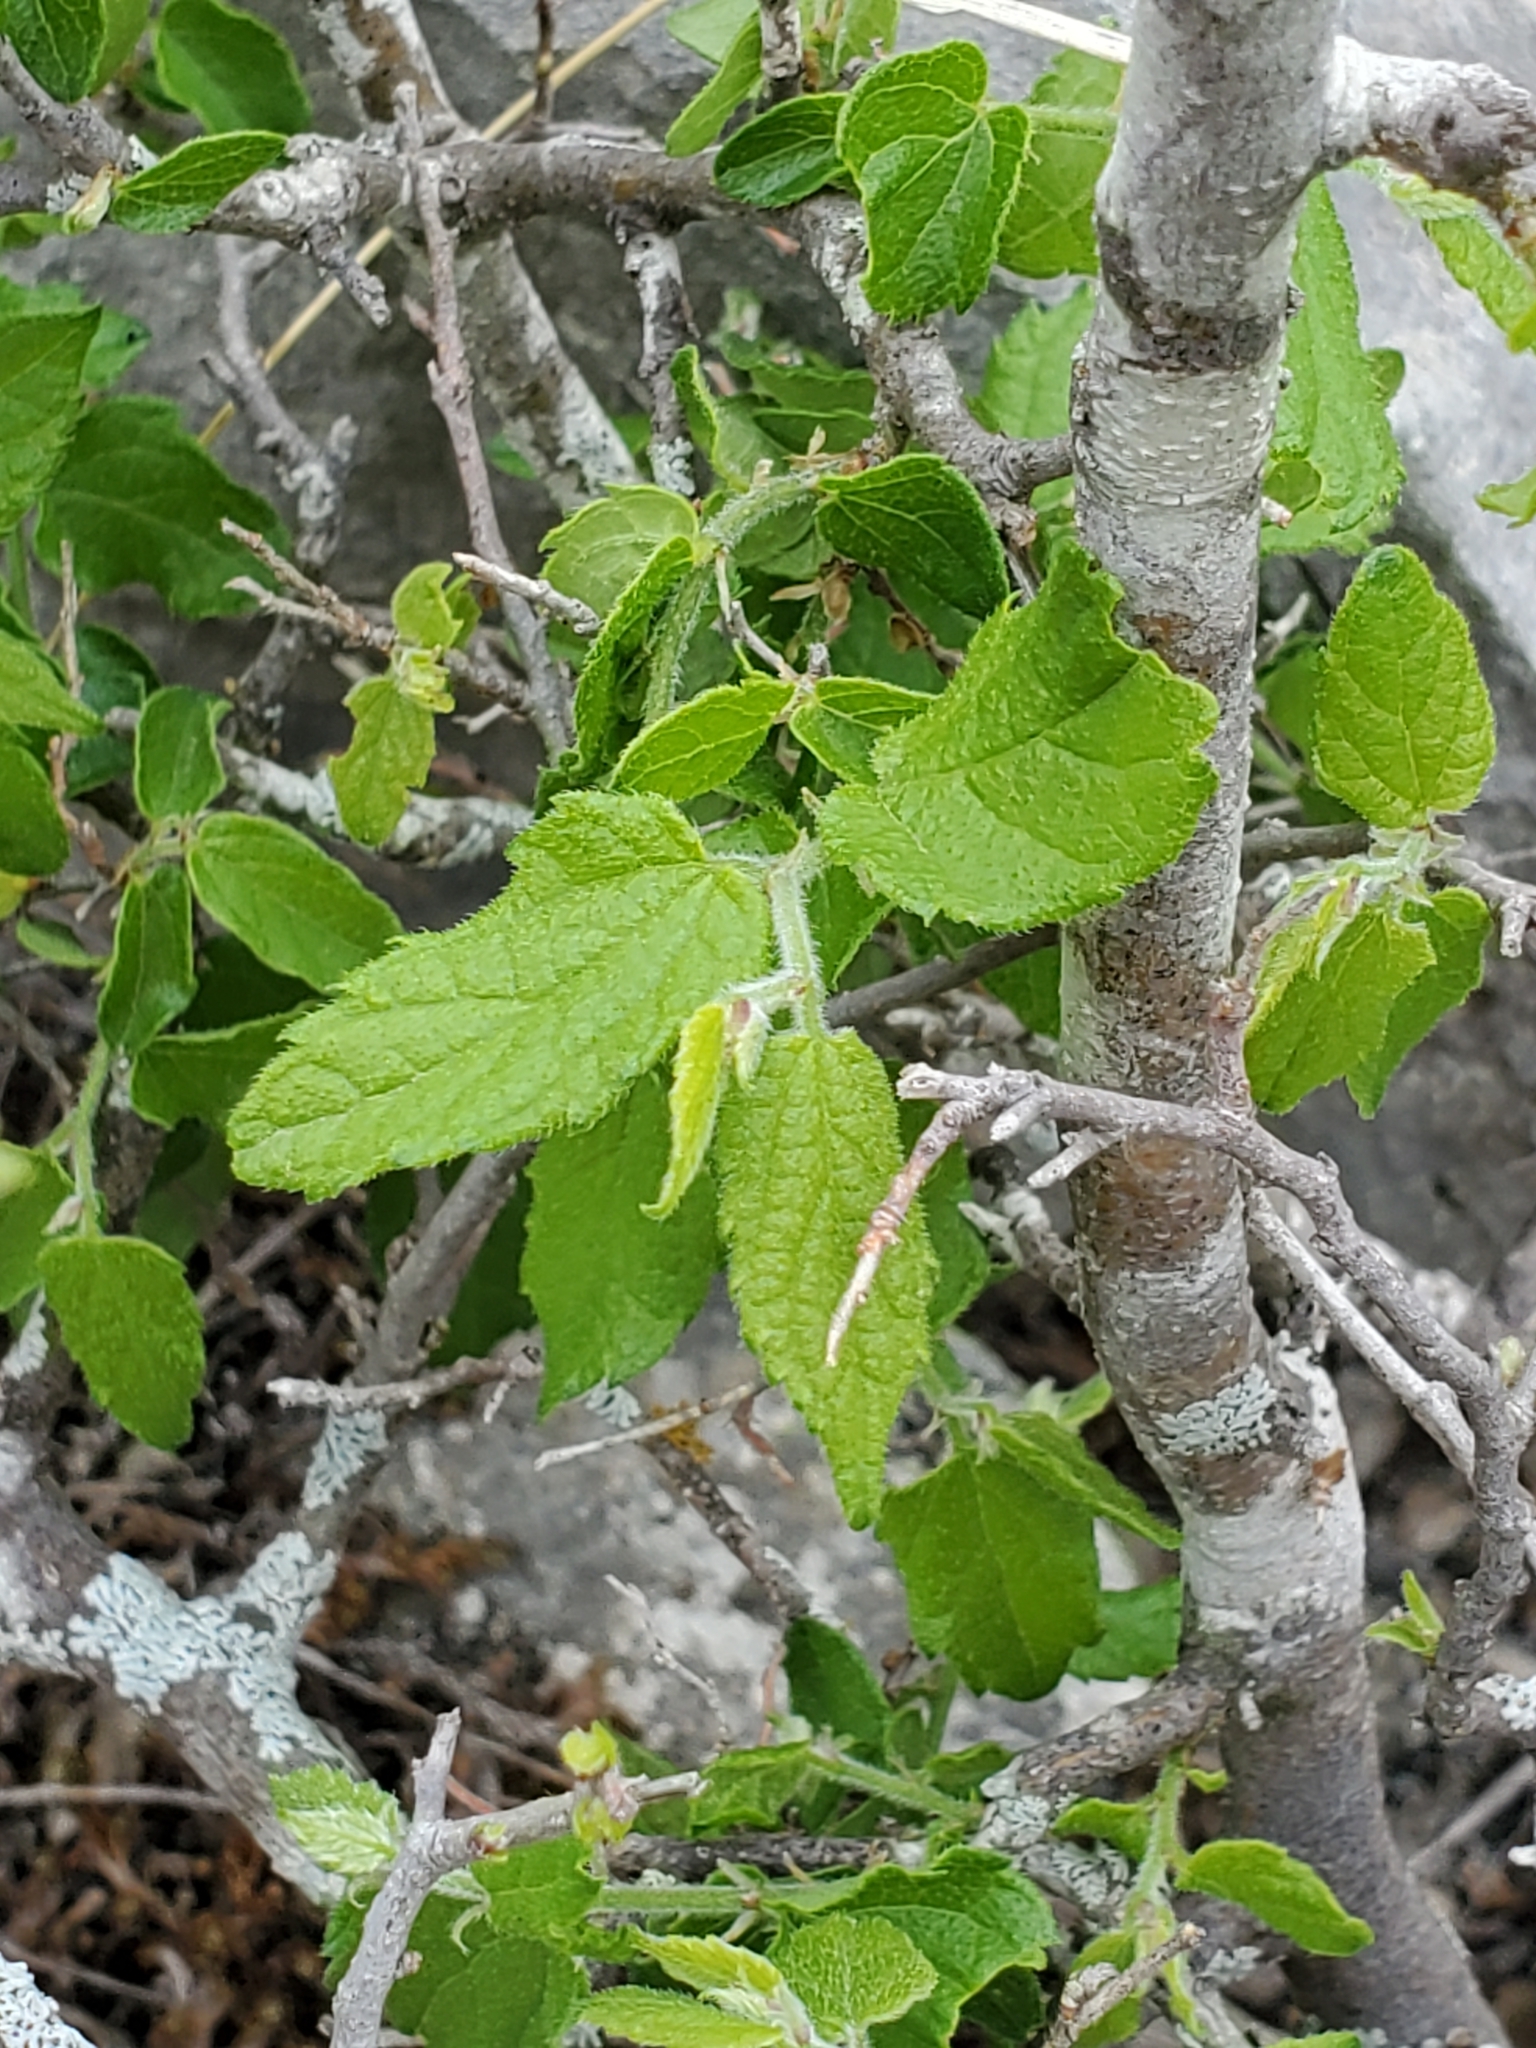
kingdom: Plantae
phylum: Tracheophyta
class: Magnoliopsida
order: Rosales
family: Cannabaceae
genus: Celtis
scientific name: Celtis reticulata
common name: Netleaf hackberry
